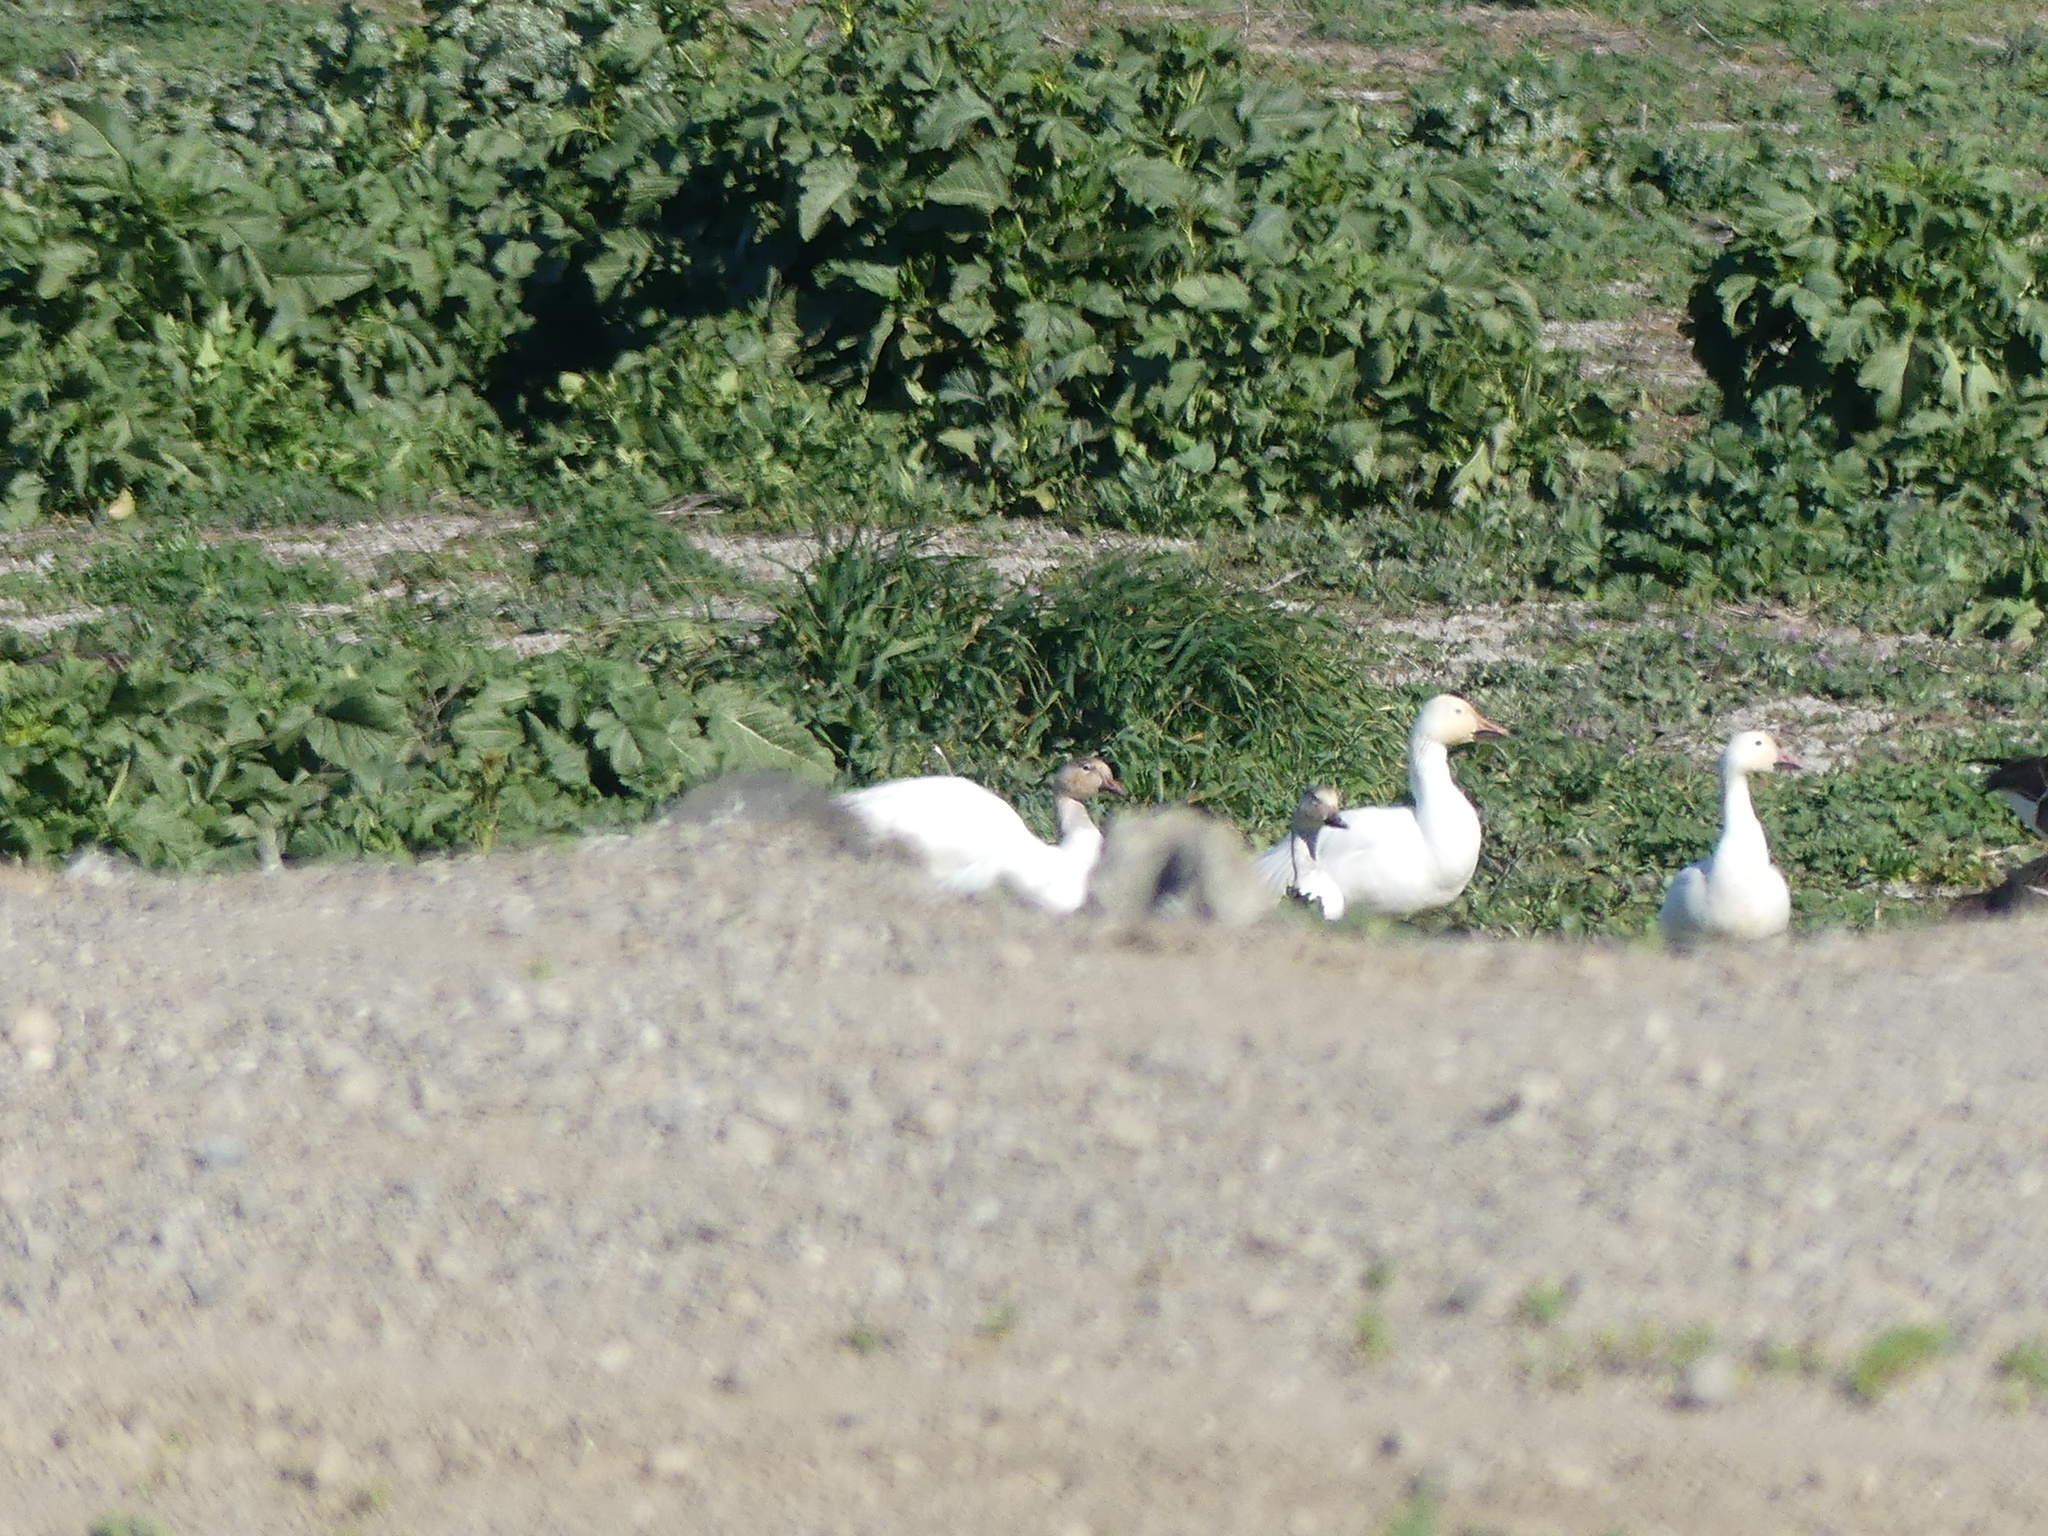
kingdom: Animalia
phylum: Chordata
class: Aves
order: Anseriformes
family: Anatidae
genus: Anser
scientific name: Anser caerulescens
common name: Snow goose
